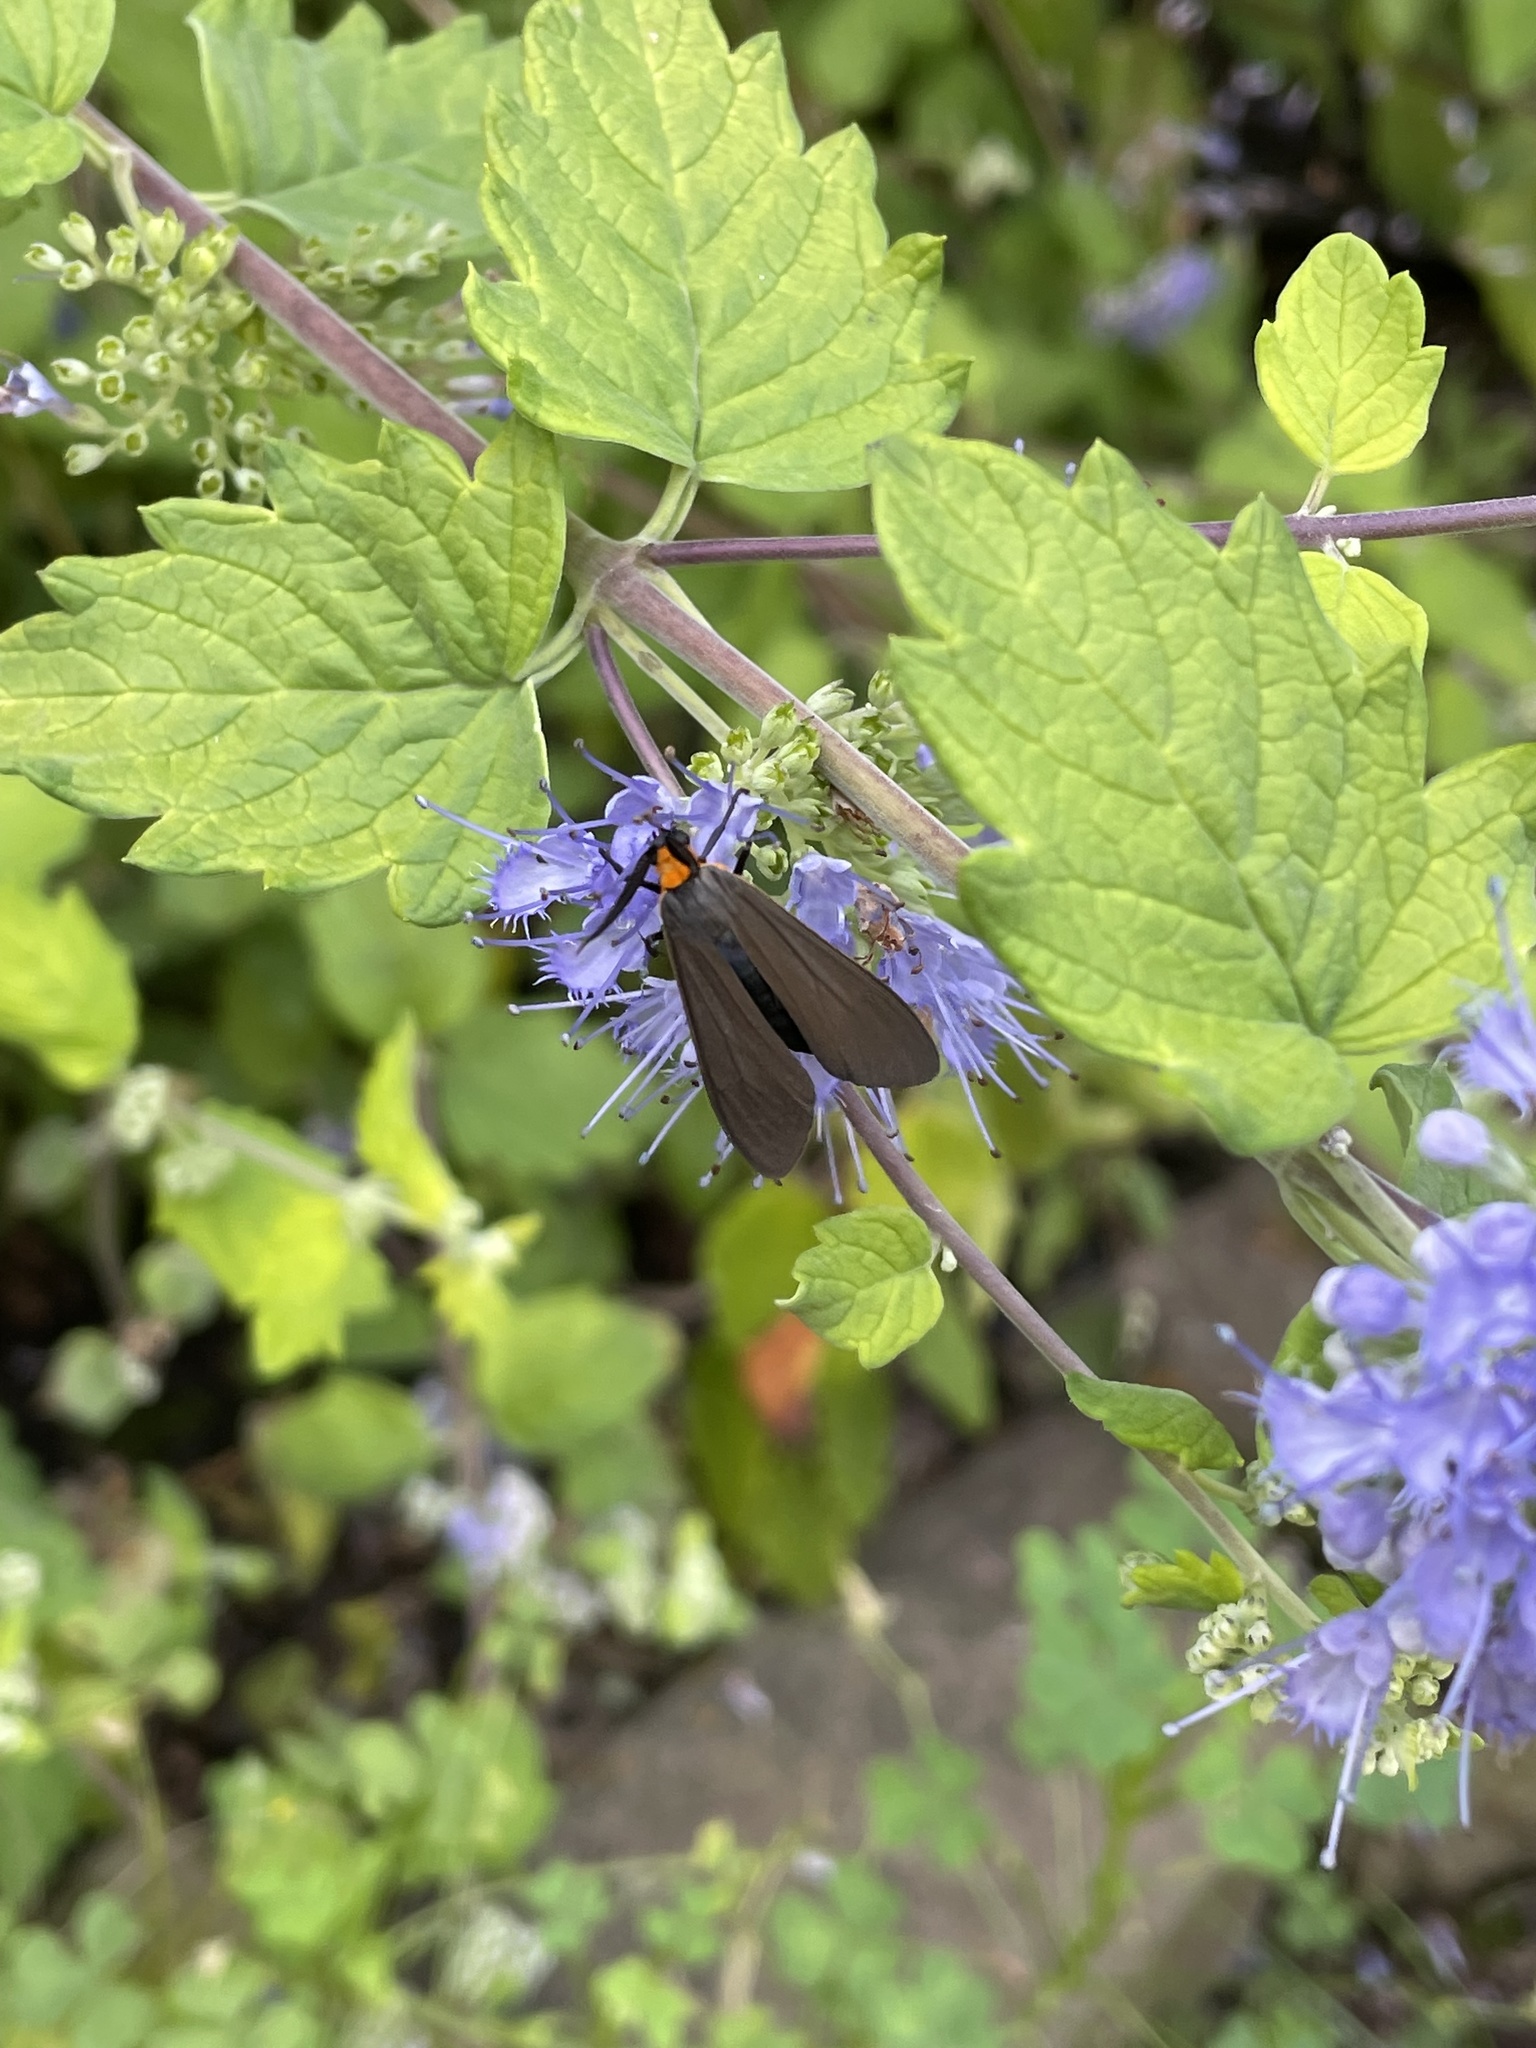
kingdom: Animalia
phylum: Arthropoda
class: Insecta
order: Lepidoptera
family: Erebidae
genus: Cisseps
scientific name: Cisseps fulvicollis
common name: Yellow-collared scape moth
